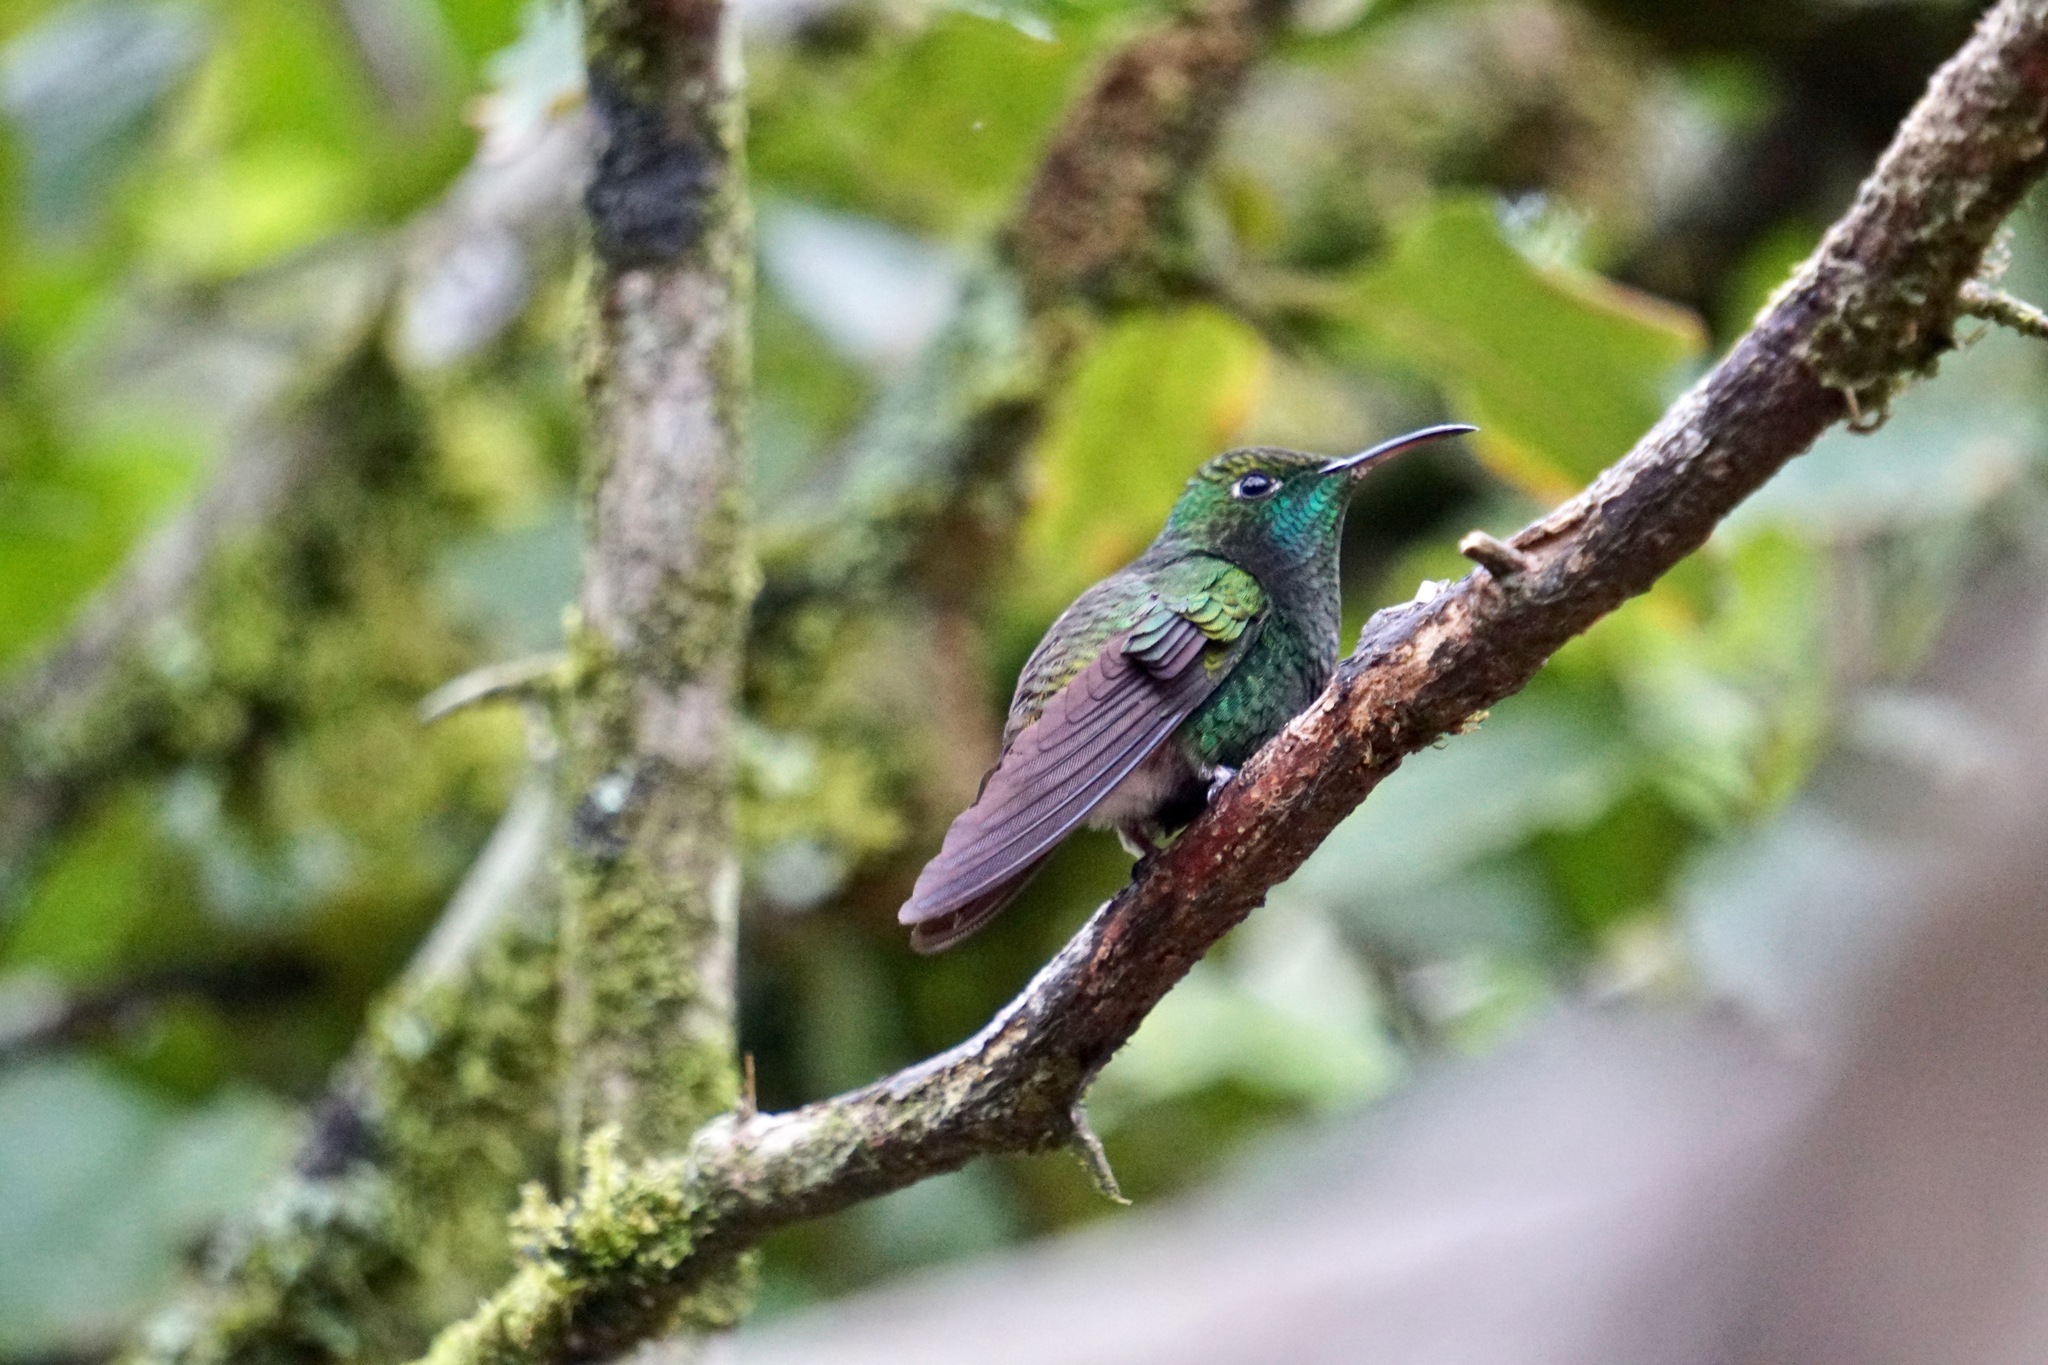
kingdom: Animalia
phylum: Chordata
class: Aves
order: Apodiformes
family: Trochilidae
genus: Microchera
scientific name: Microchera cupreiceps
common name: Coppery-headed emerald
